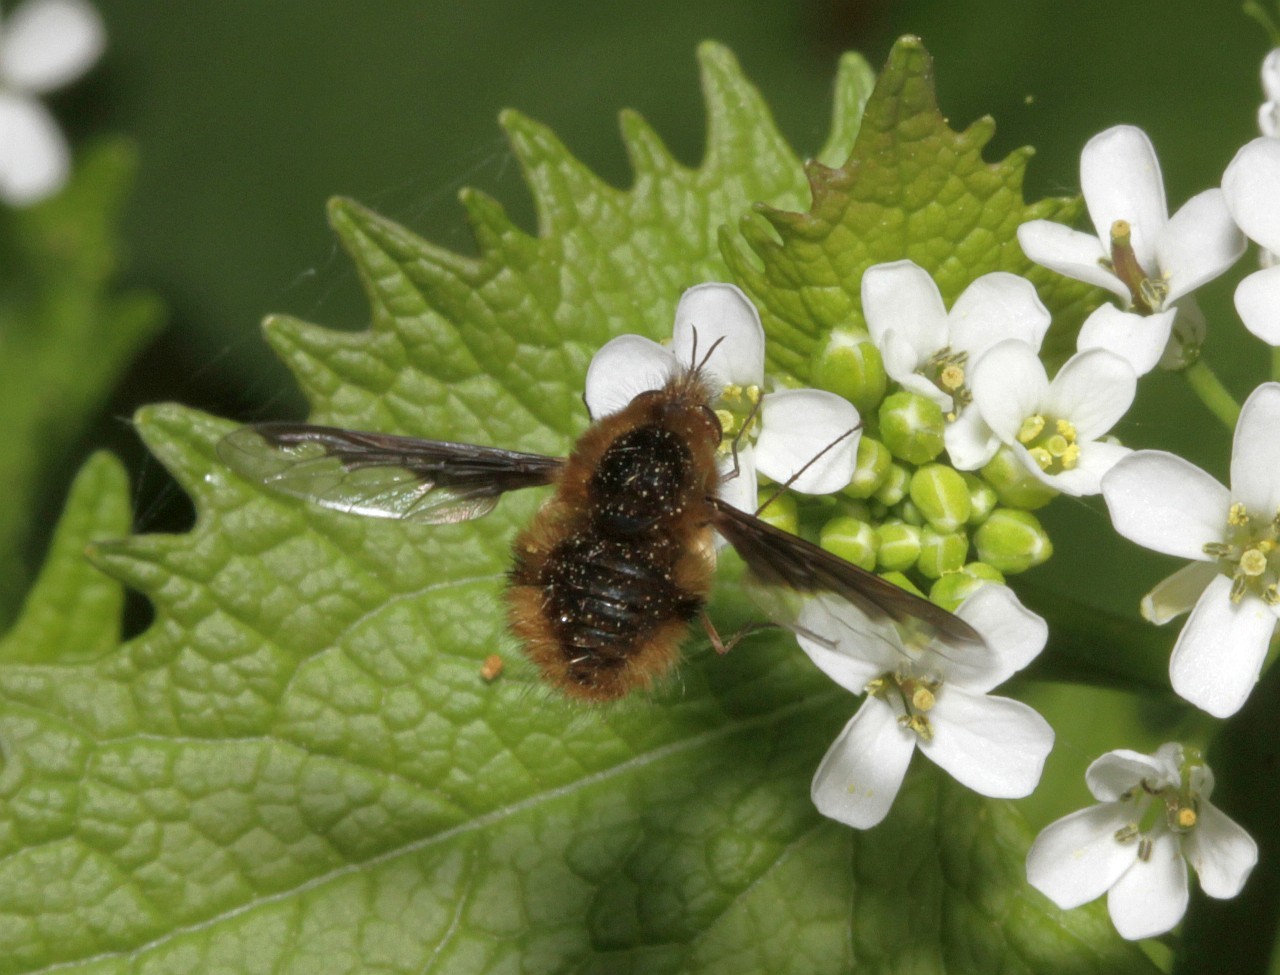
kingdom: Animalia
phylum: Arthropoda
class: Insecta
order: Diptera
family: Bombyliidae
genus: Bombylius
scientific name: Bombylius major
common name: Bee fly
